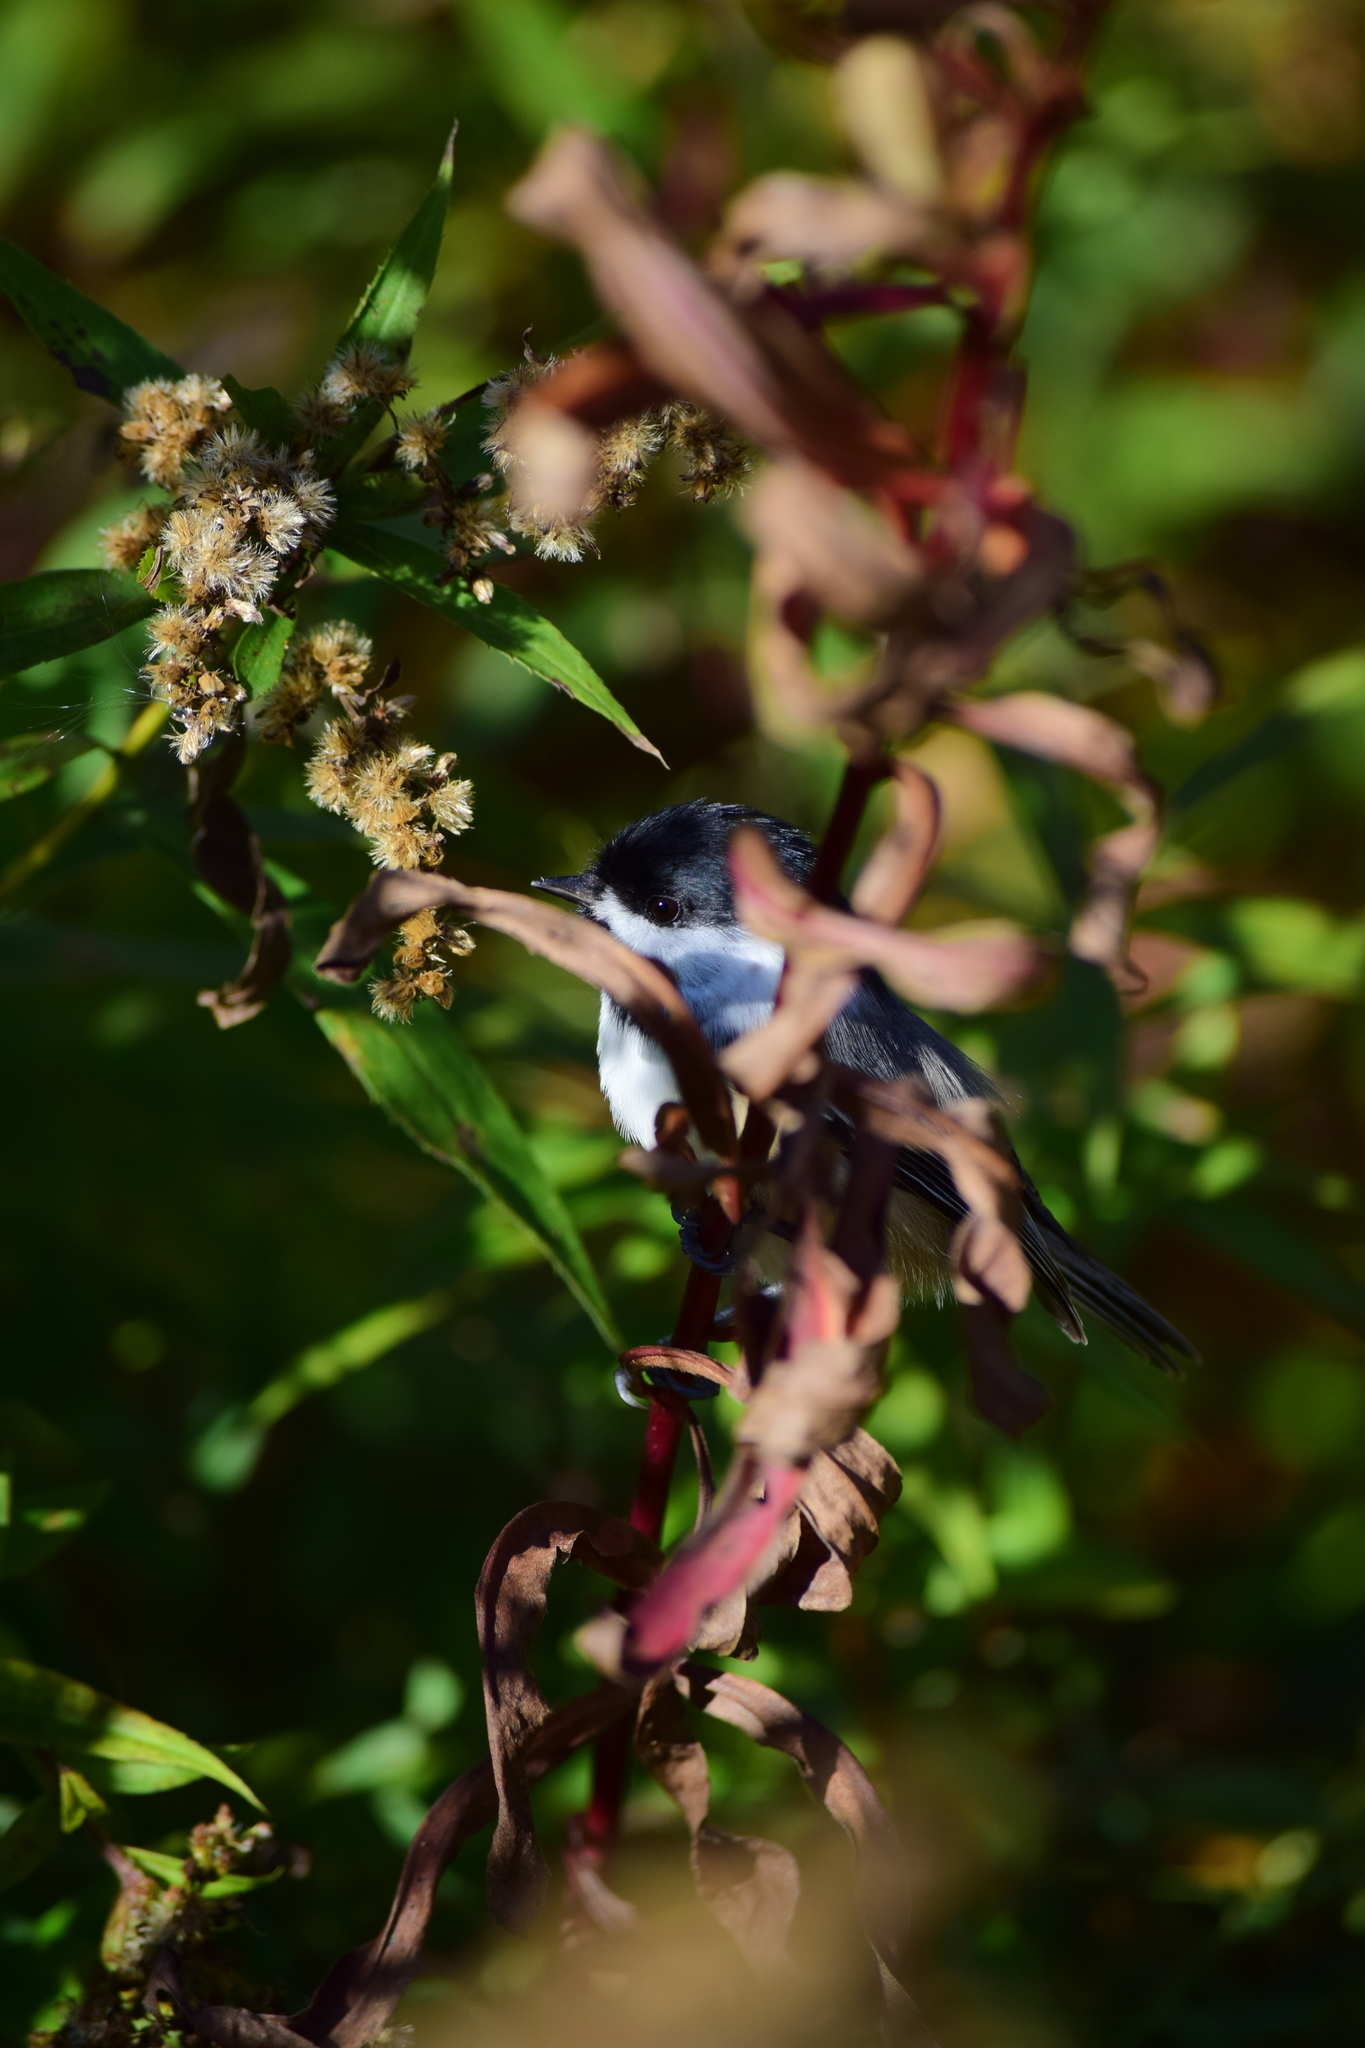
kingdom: Animalia
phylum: Chordata
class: Aves
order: Passeriformes
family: Paridae
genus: Poecile
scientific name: Poecile atricapillus
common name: Black-capped chickadee
